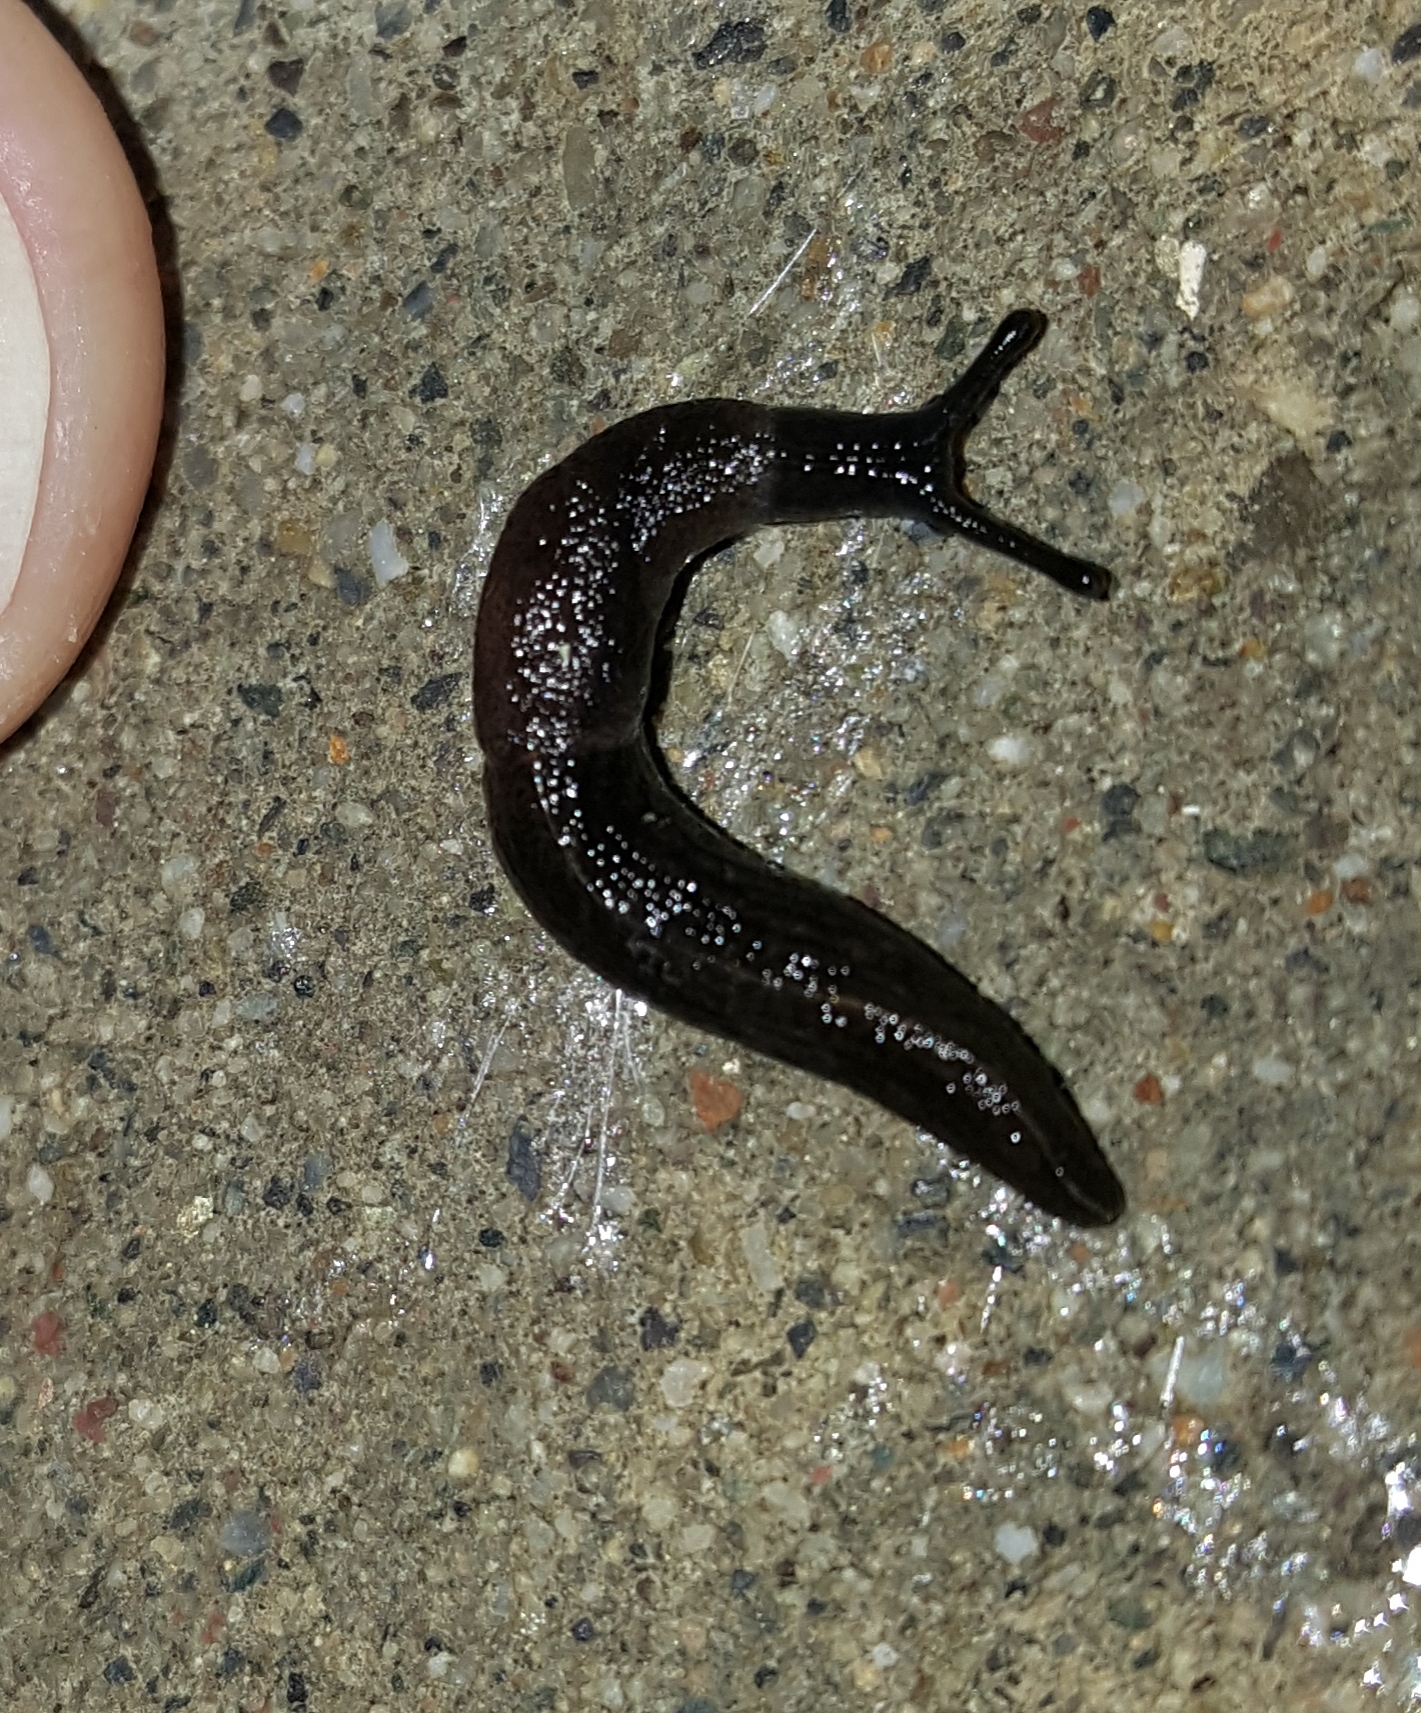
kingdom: Animalia
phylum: Mollusca
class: Gastropoda
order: Stylommatophora
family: Milacidae
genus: Milax
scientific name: Milax gagates
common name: Greenhouse slug
